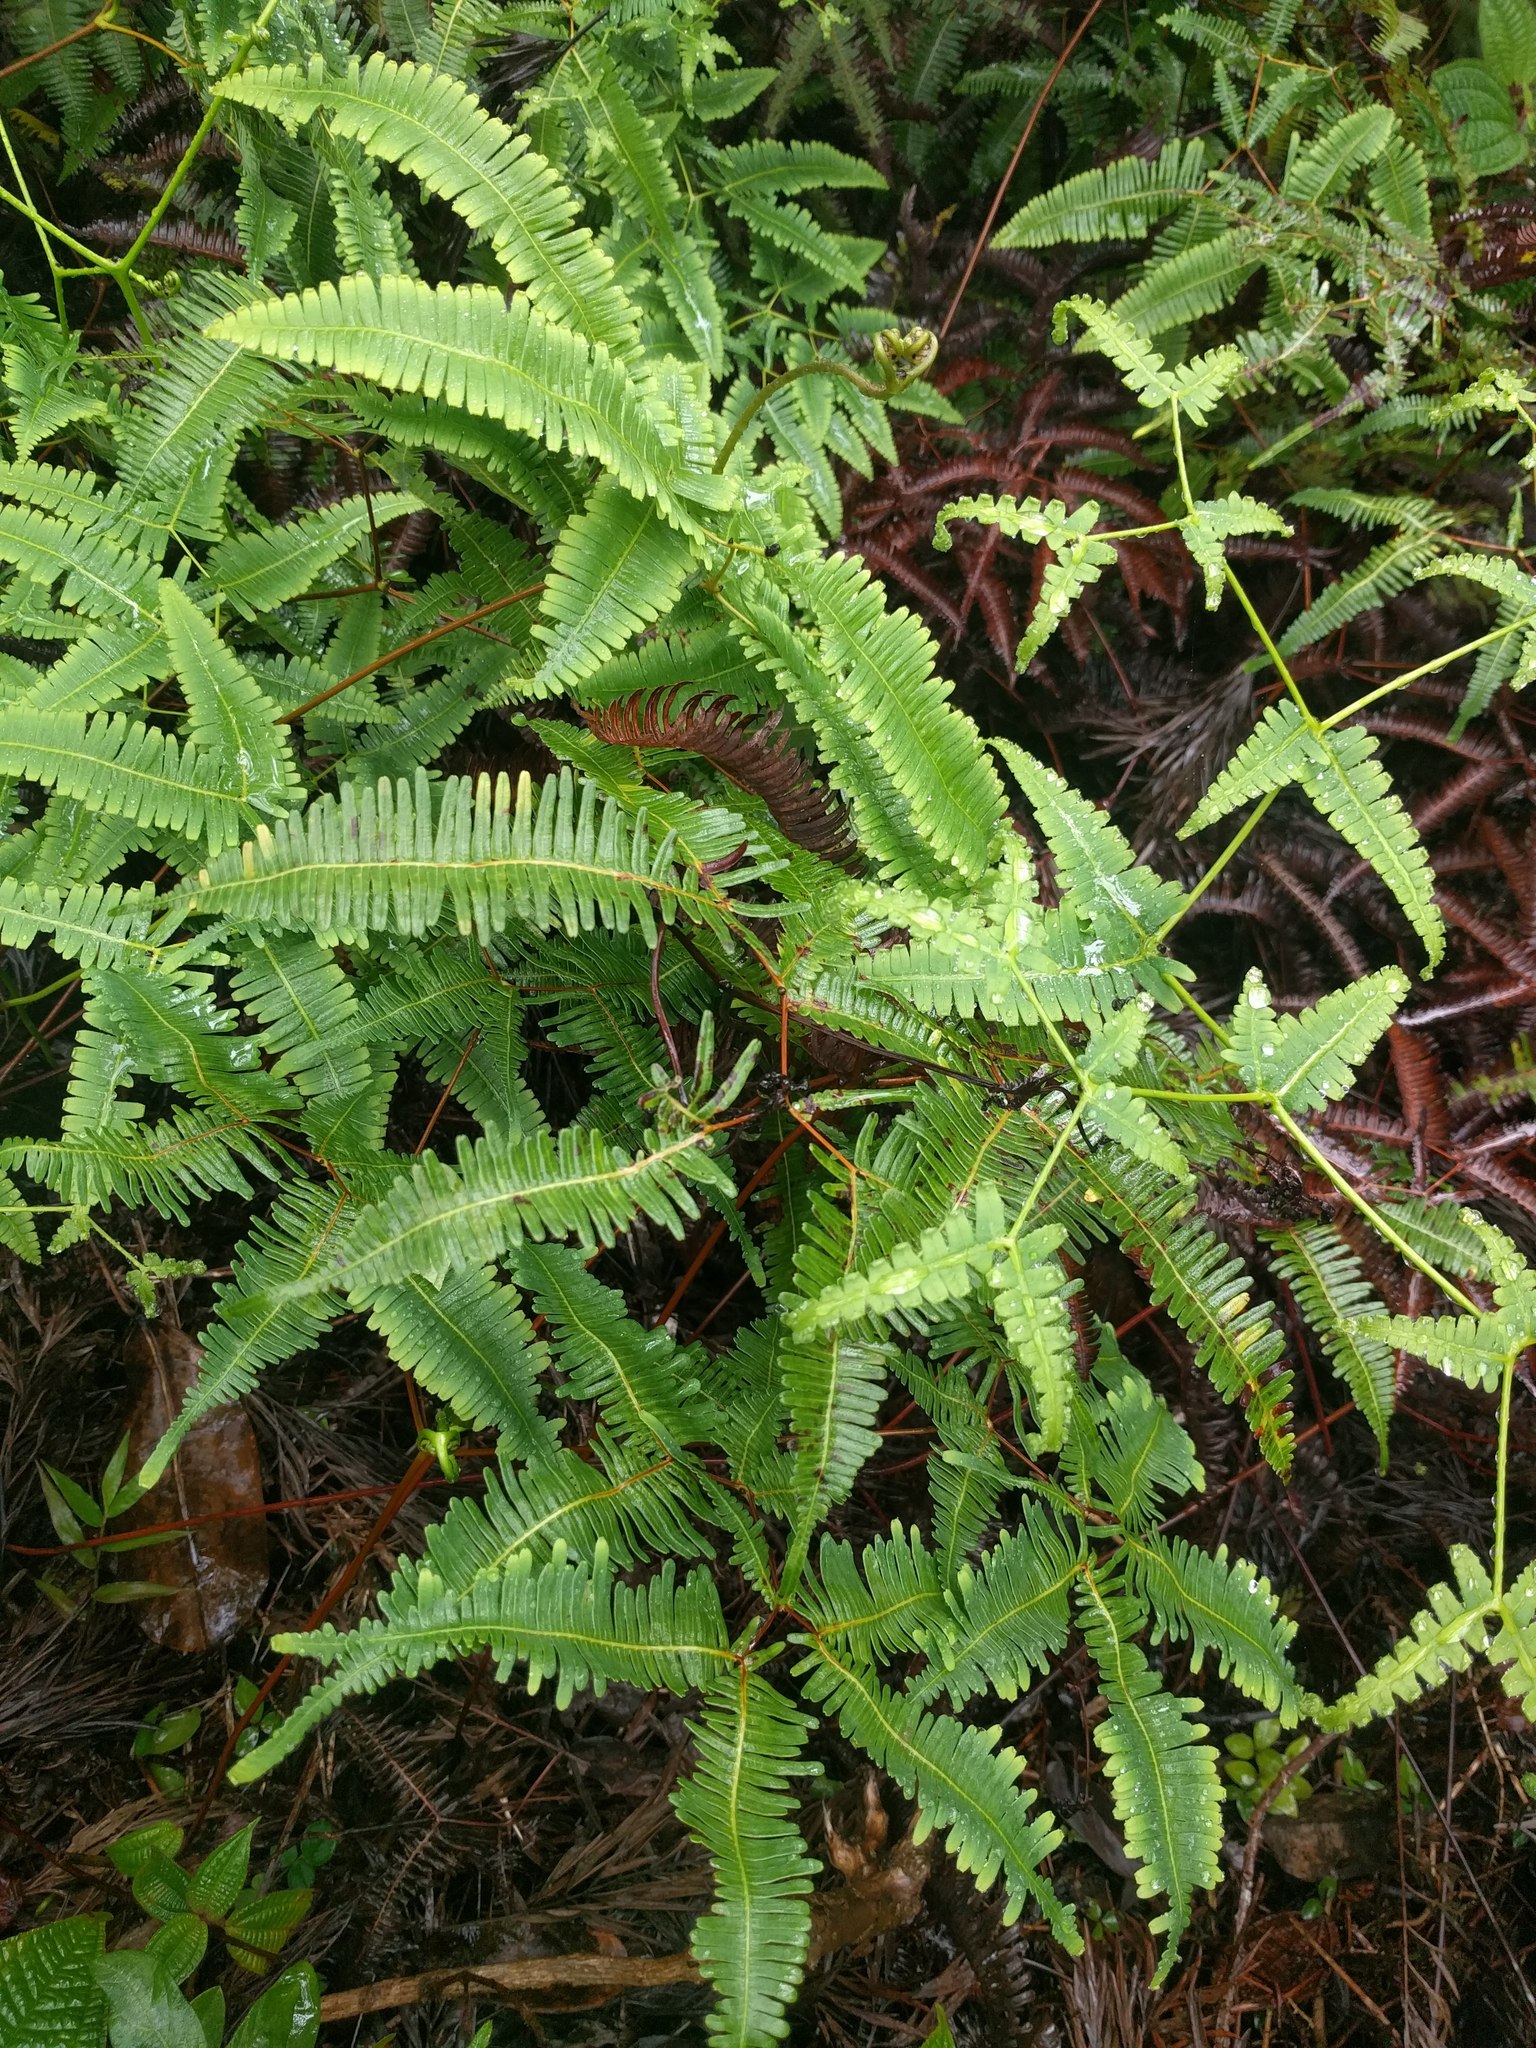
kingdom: Plantae
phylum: Tracheophyta
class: Polypodiopsida
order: Gleicheniales
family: Gleicheniaceae
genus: Dicranopteris
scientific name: Dicranopteris linearis
